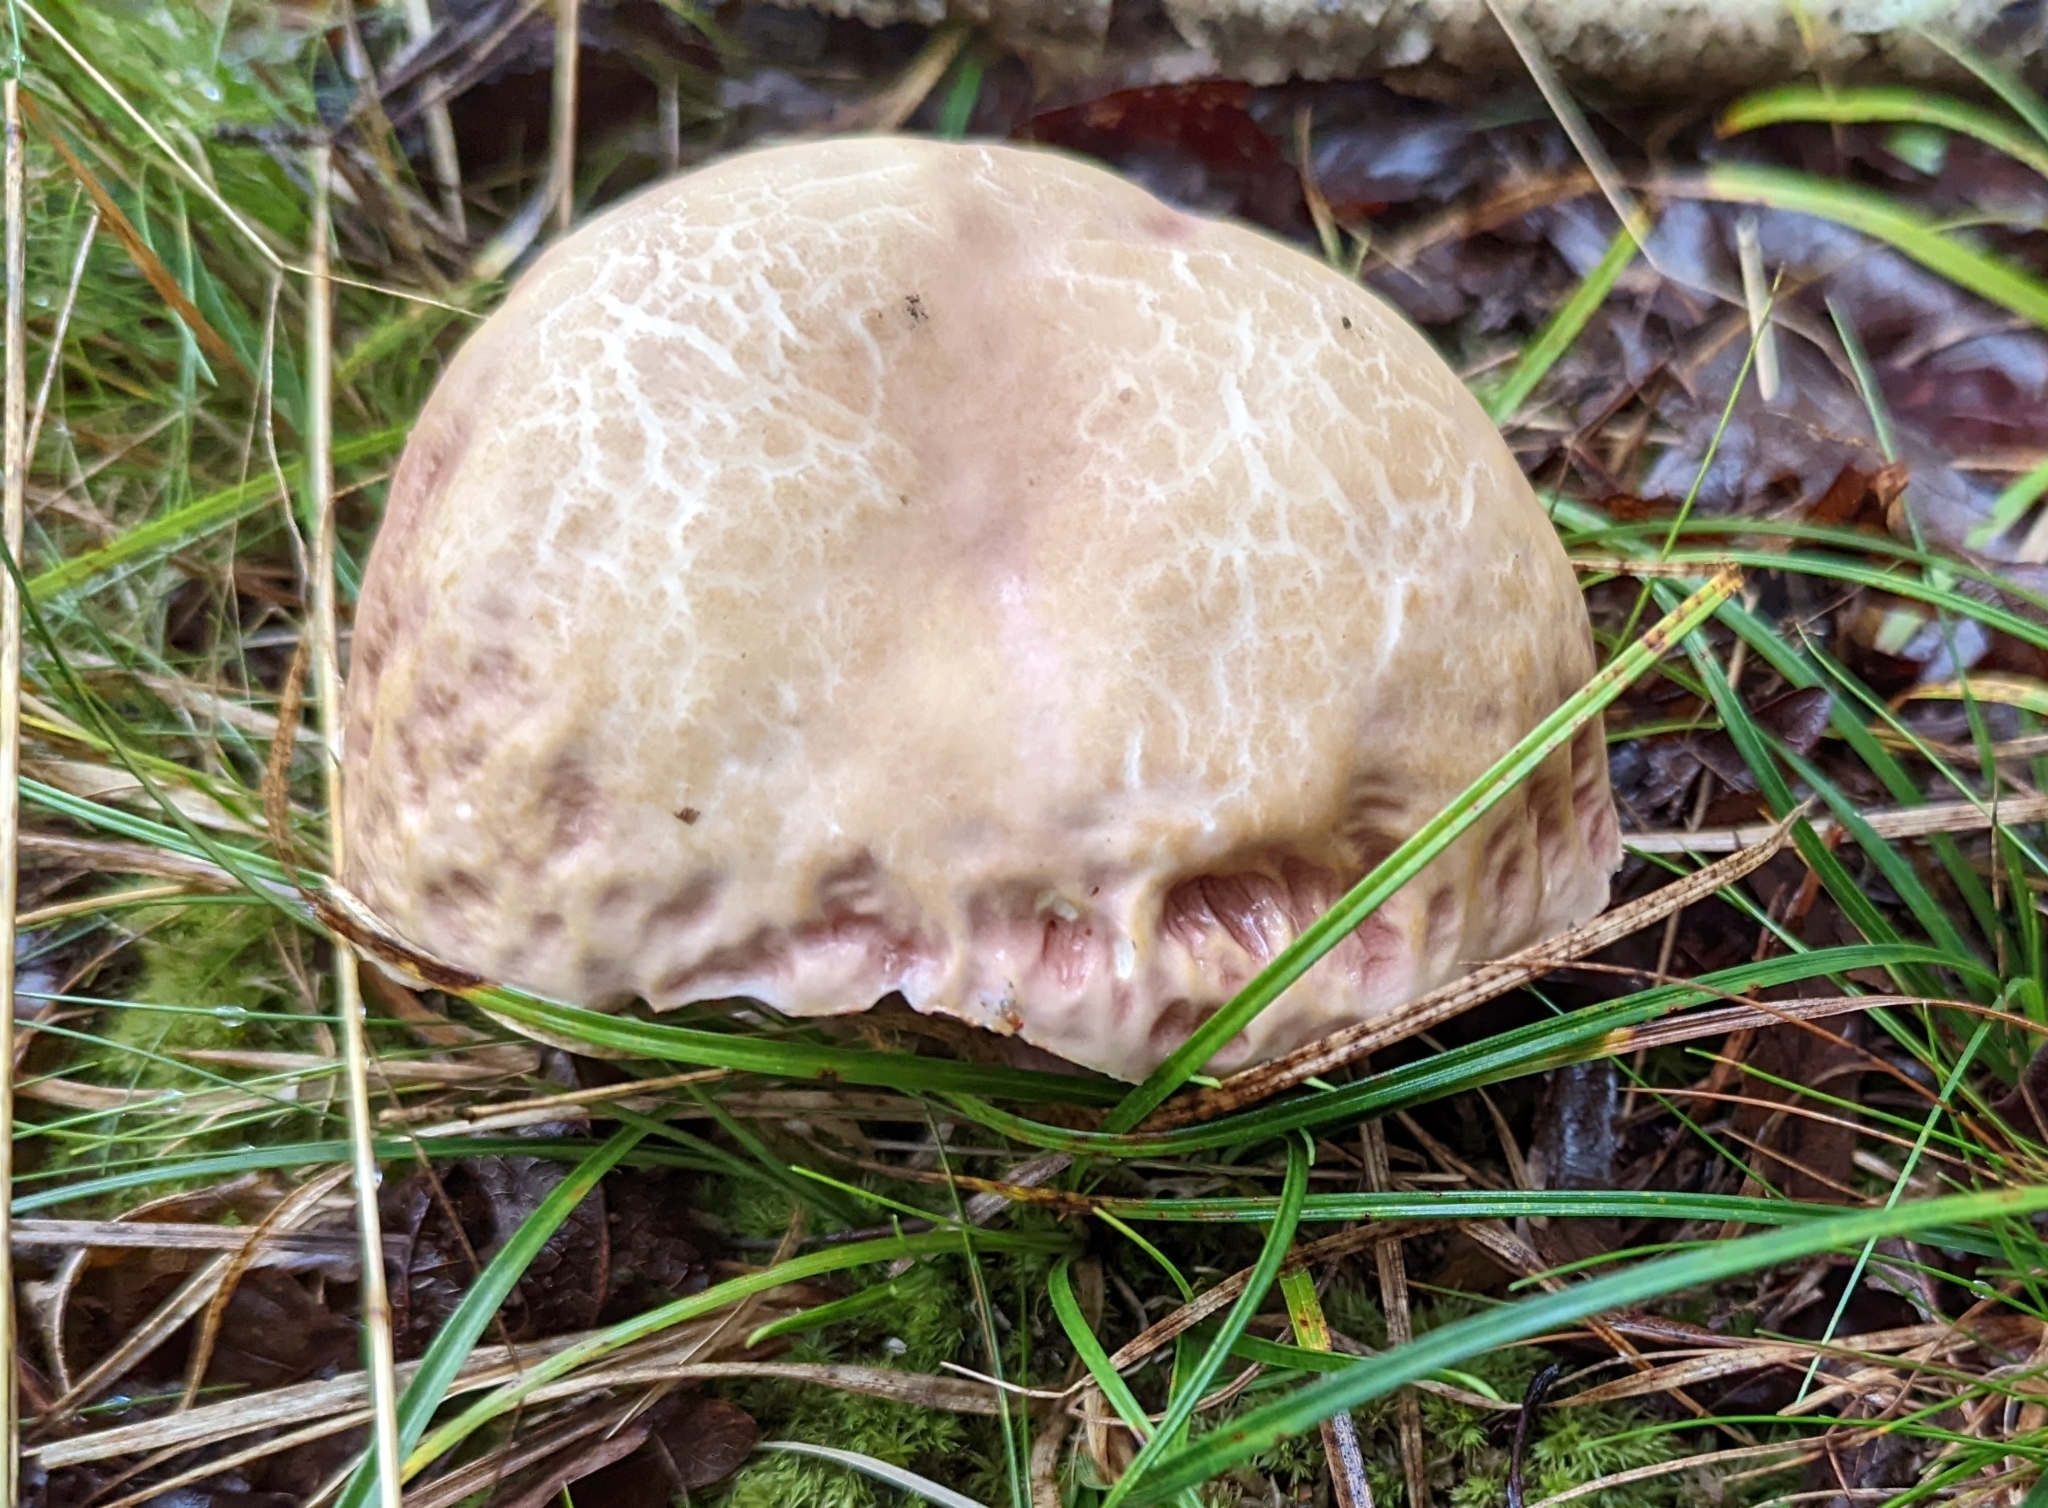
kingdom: Fungi
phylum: Basidiomycota
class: Agaricomycetes
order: Boletales
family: Boletaceae
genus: Xanthoconium
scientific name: Xanthoconium separans
